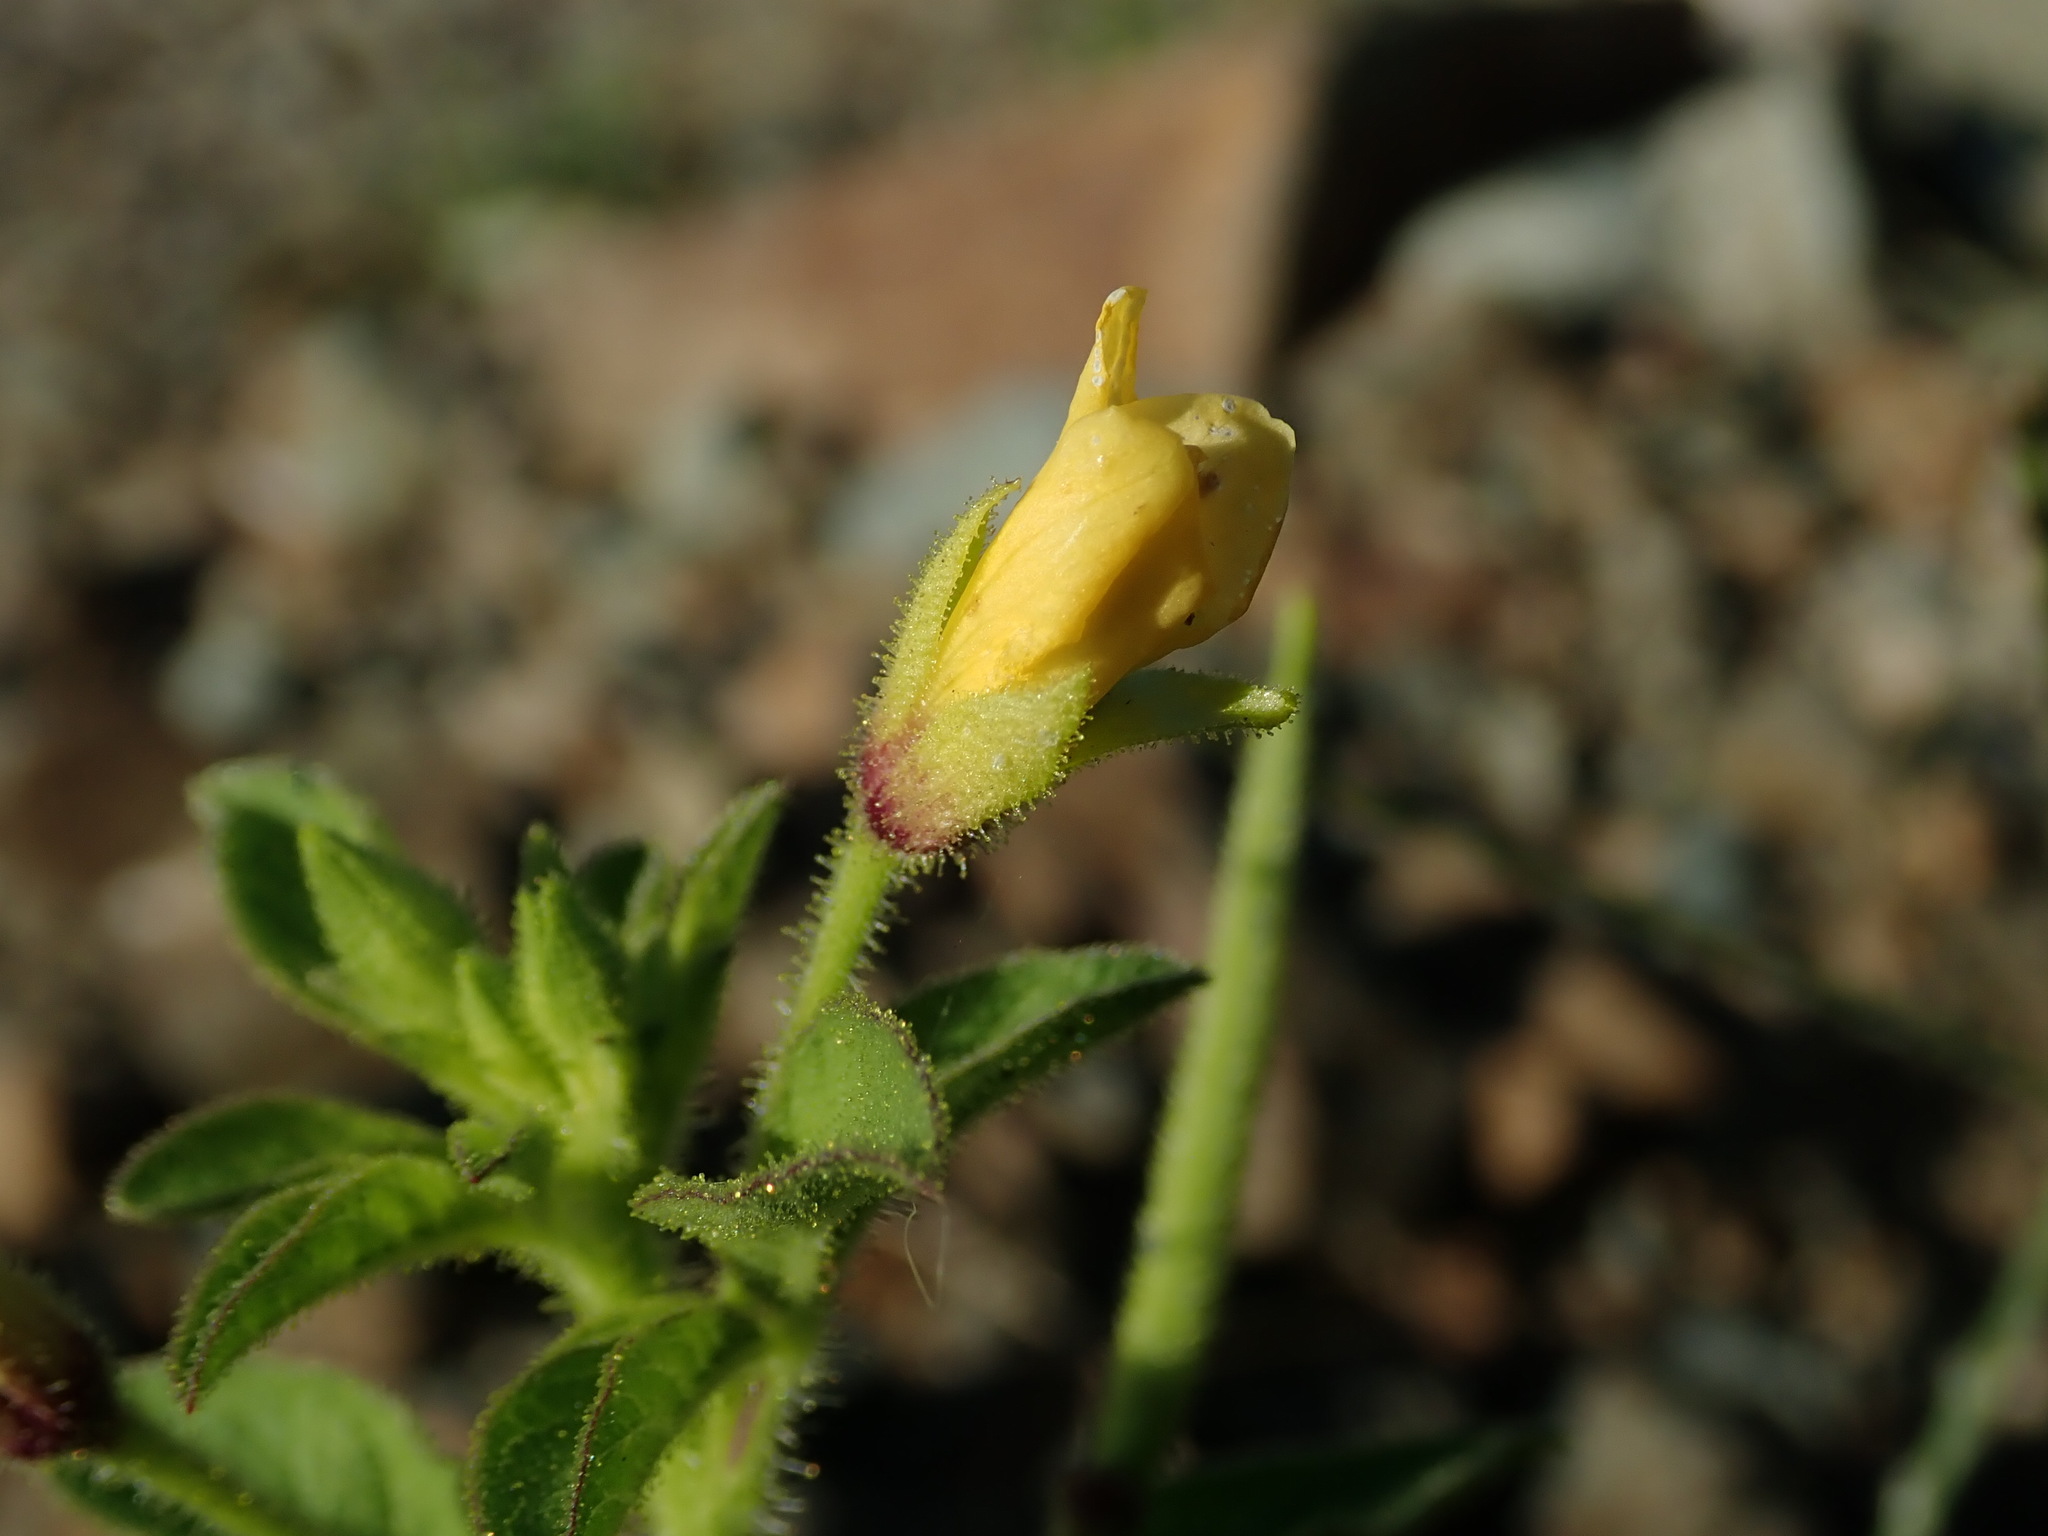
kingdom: Plantae
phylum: Tracheophyta
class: Magnoliopsida
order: Brassicales
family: Cleomaceae
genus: Arivela
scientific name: Arivela viscosa
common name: Asian spiderflower
